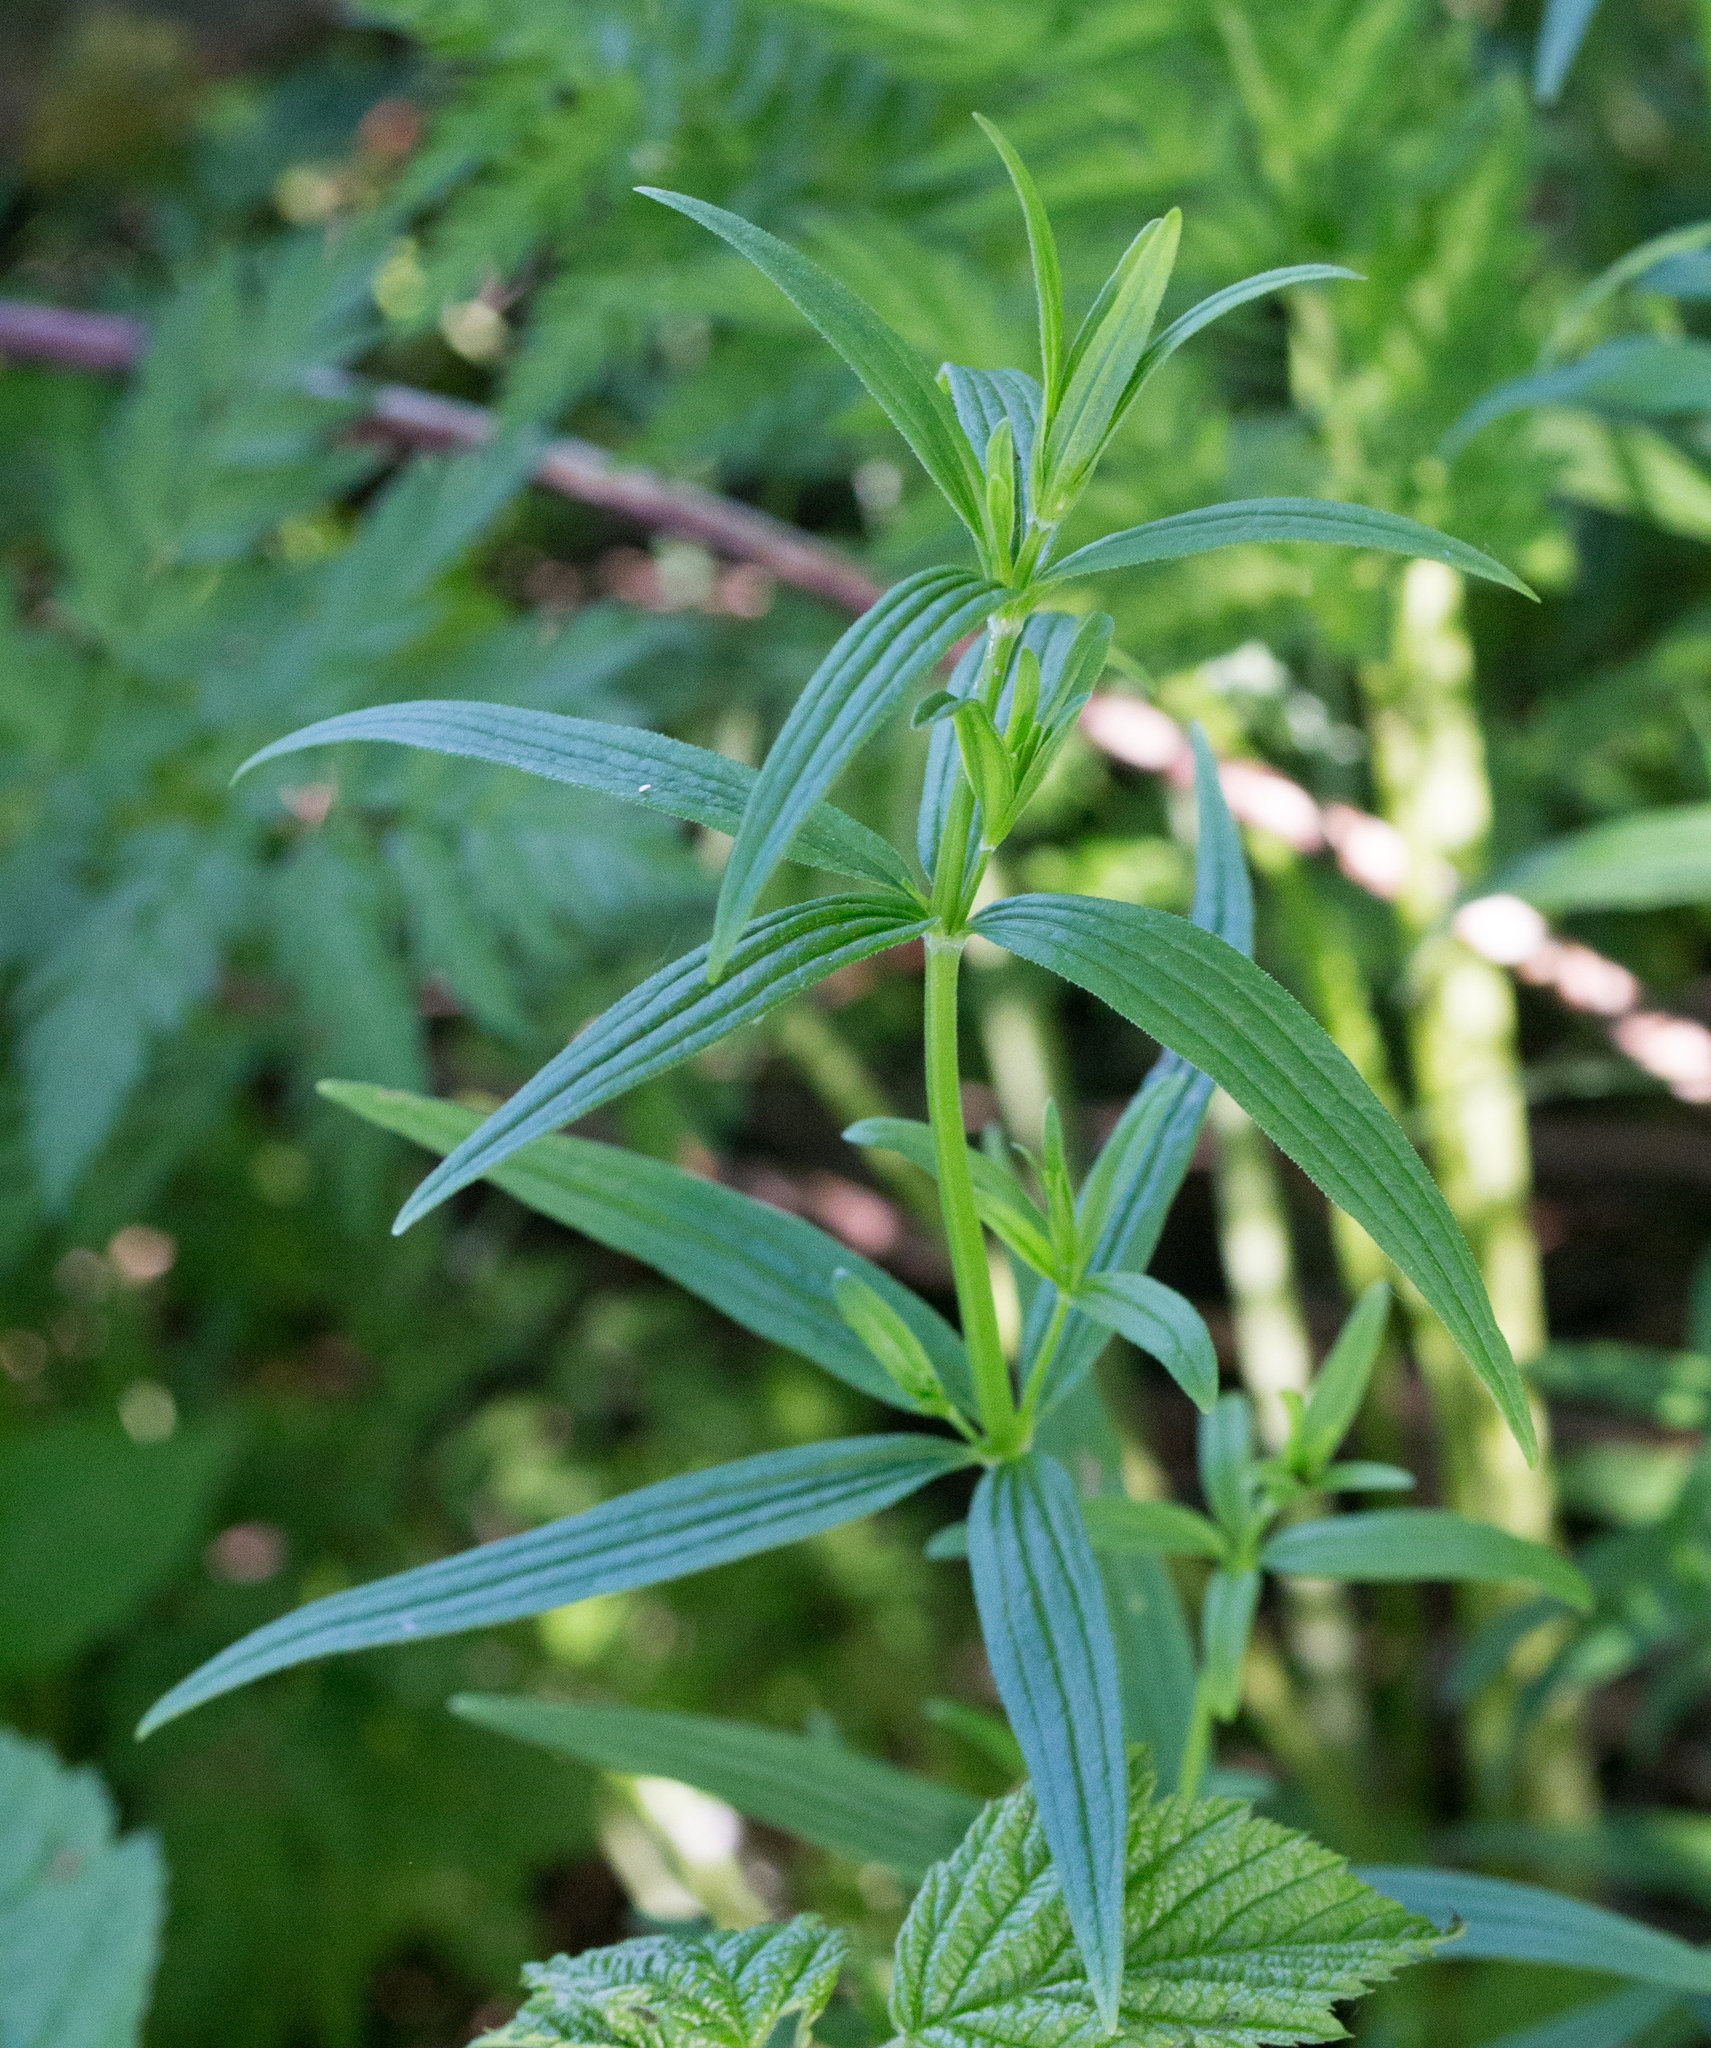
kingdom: Plantae
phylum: Tracheophyta
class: Magnoliopsida
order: Gentianales
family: Rubiaceae
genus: Galium
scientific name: Galium boreale
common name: Northern bedstraw
